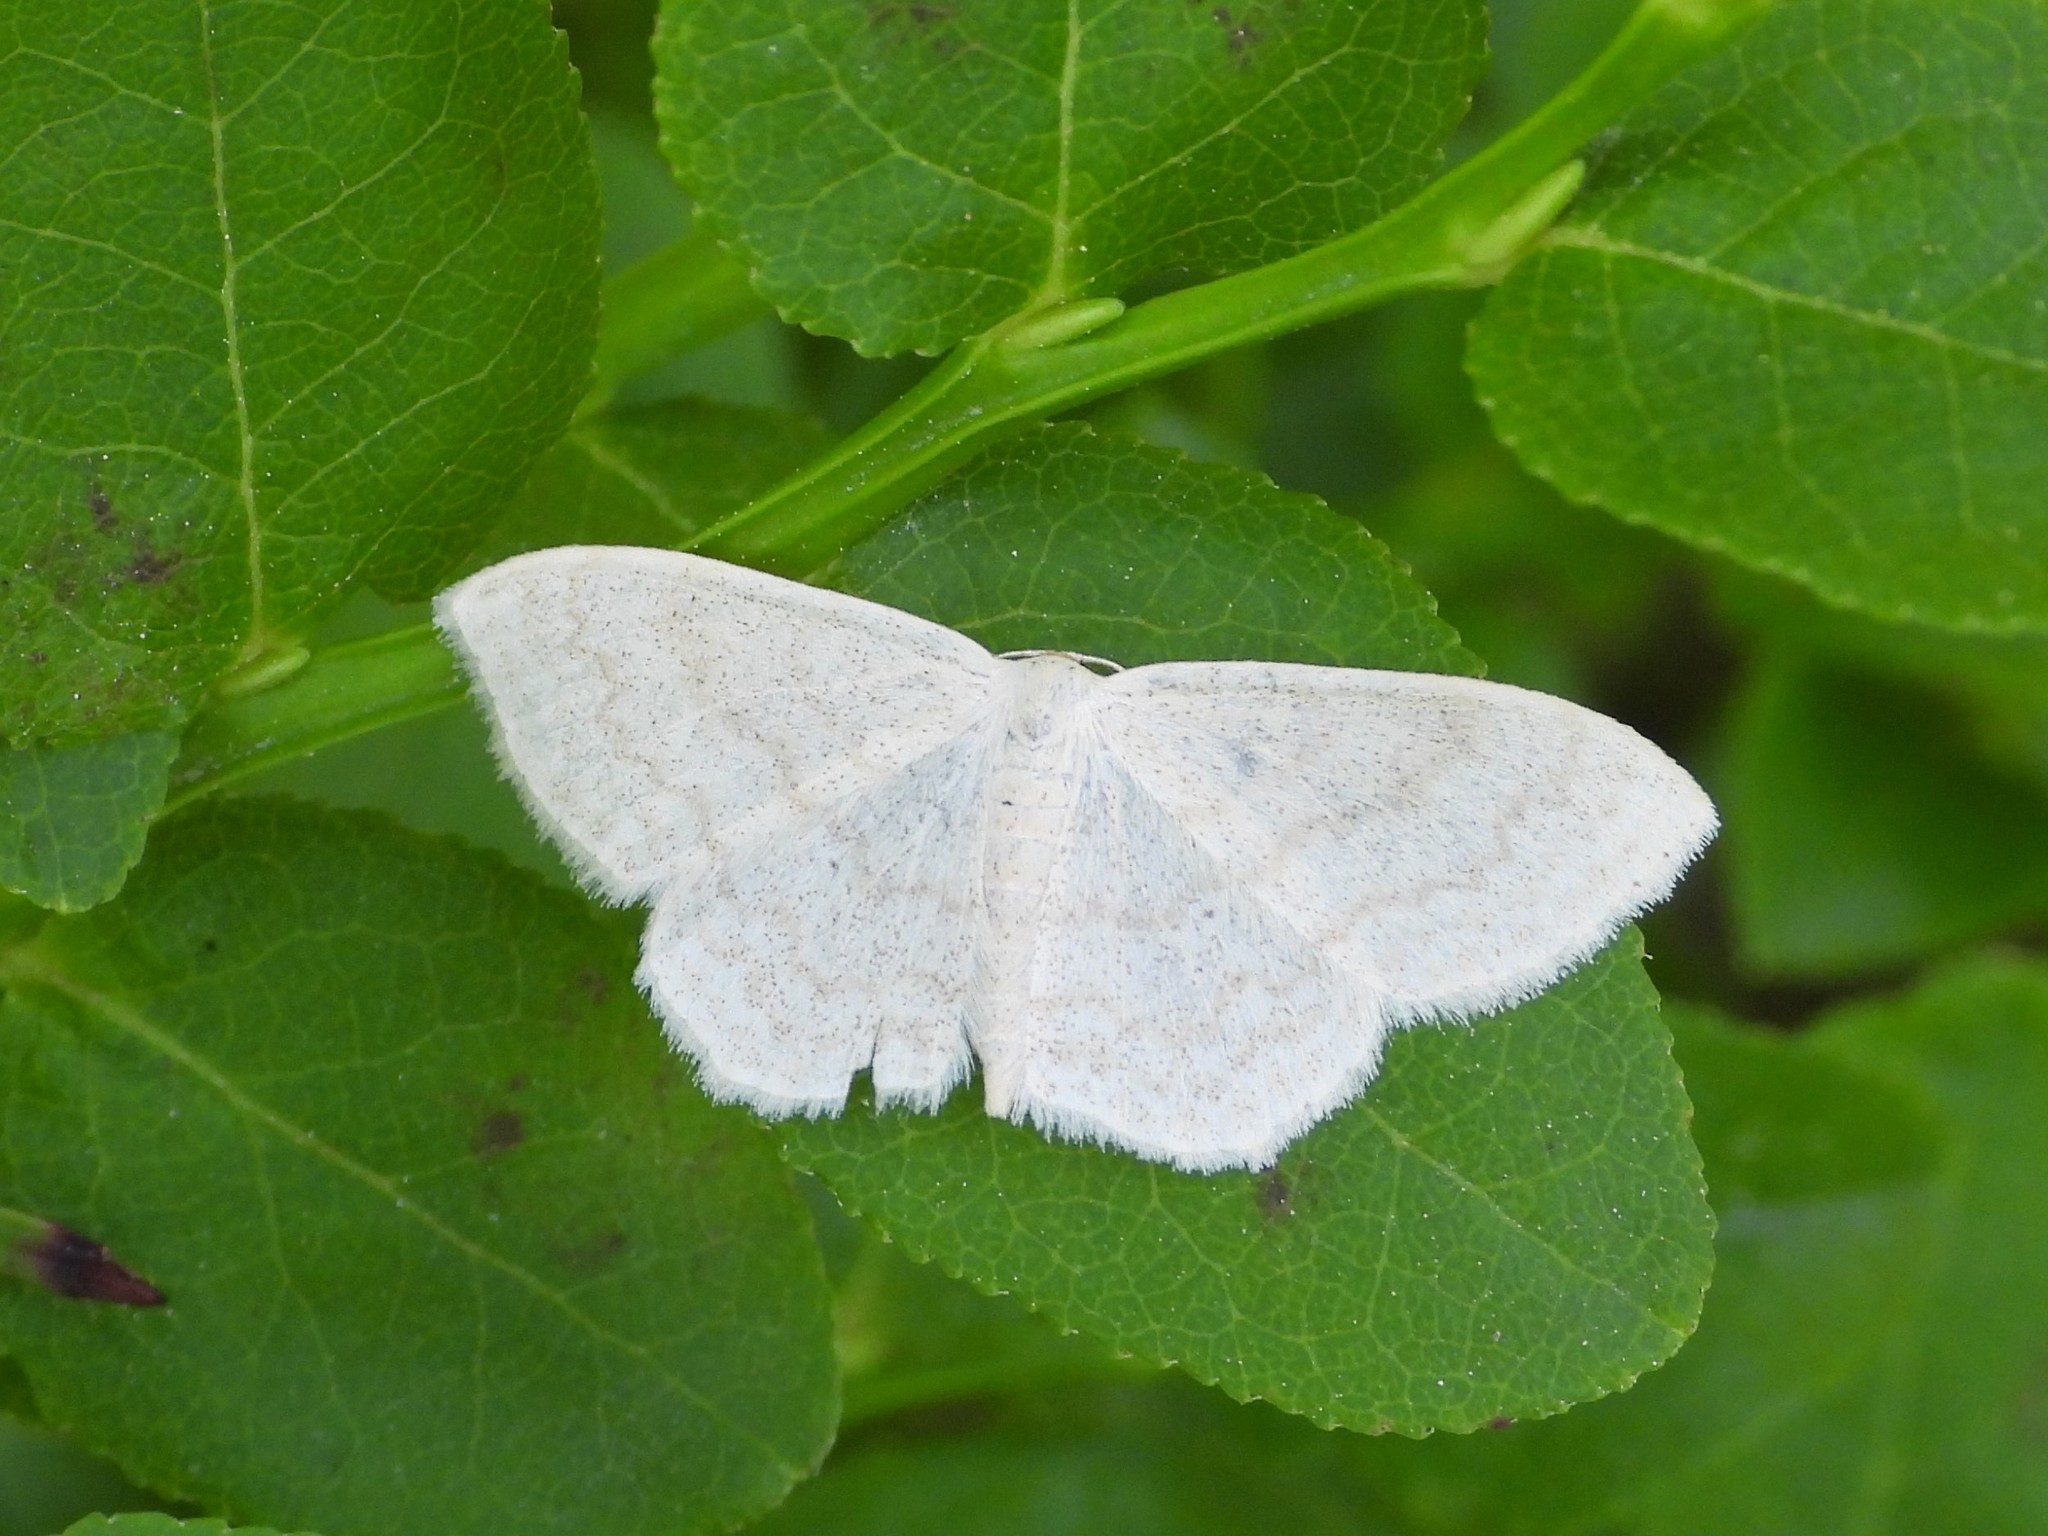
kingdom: Animalia
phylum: Arthropoda
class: Insecta
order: Lepidoptera
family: Geometridae
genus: Scopula
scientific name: Scopula floslactata
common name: Cream wave
